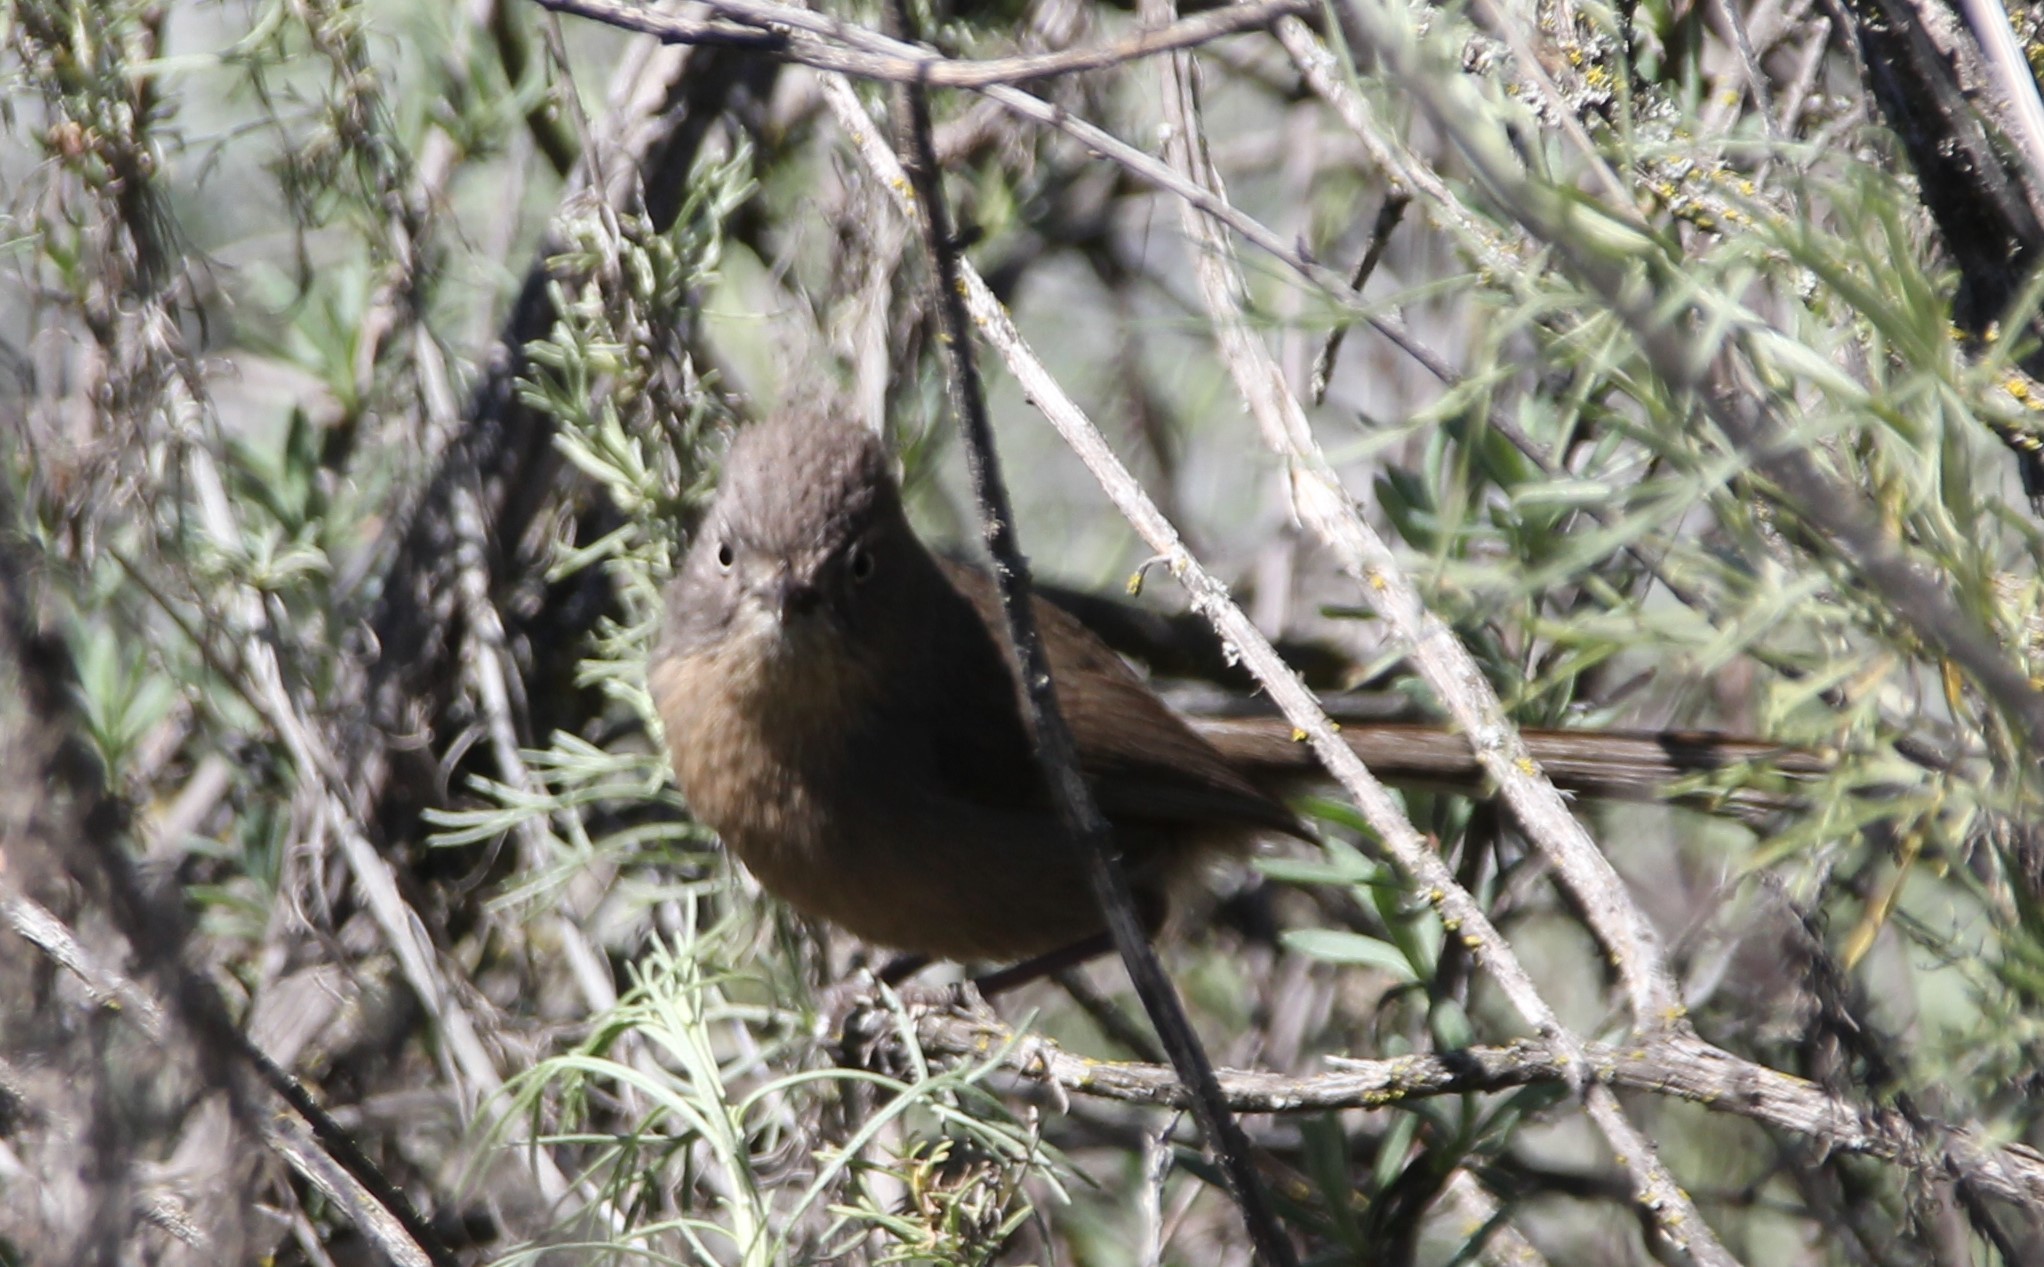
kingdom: Animalia
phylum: Chordata
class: Aves
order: Passeriformes
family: Sylviidae
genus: Chamaea
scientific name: Chamaea fasciata
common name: Wrentit
